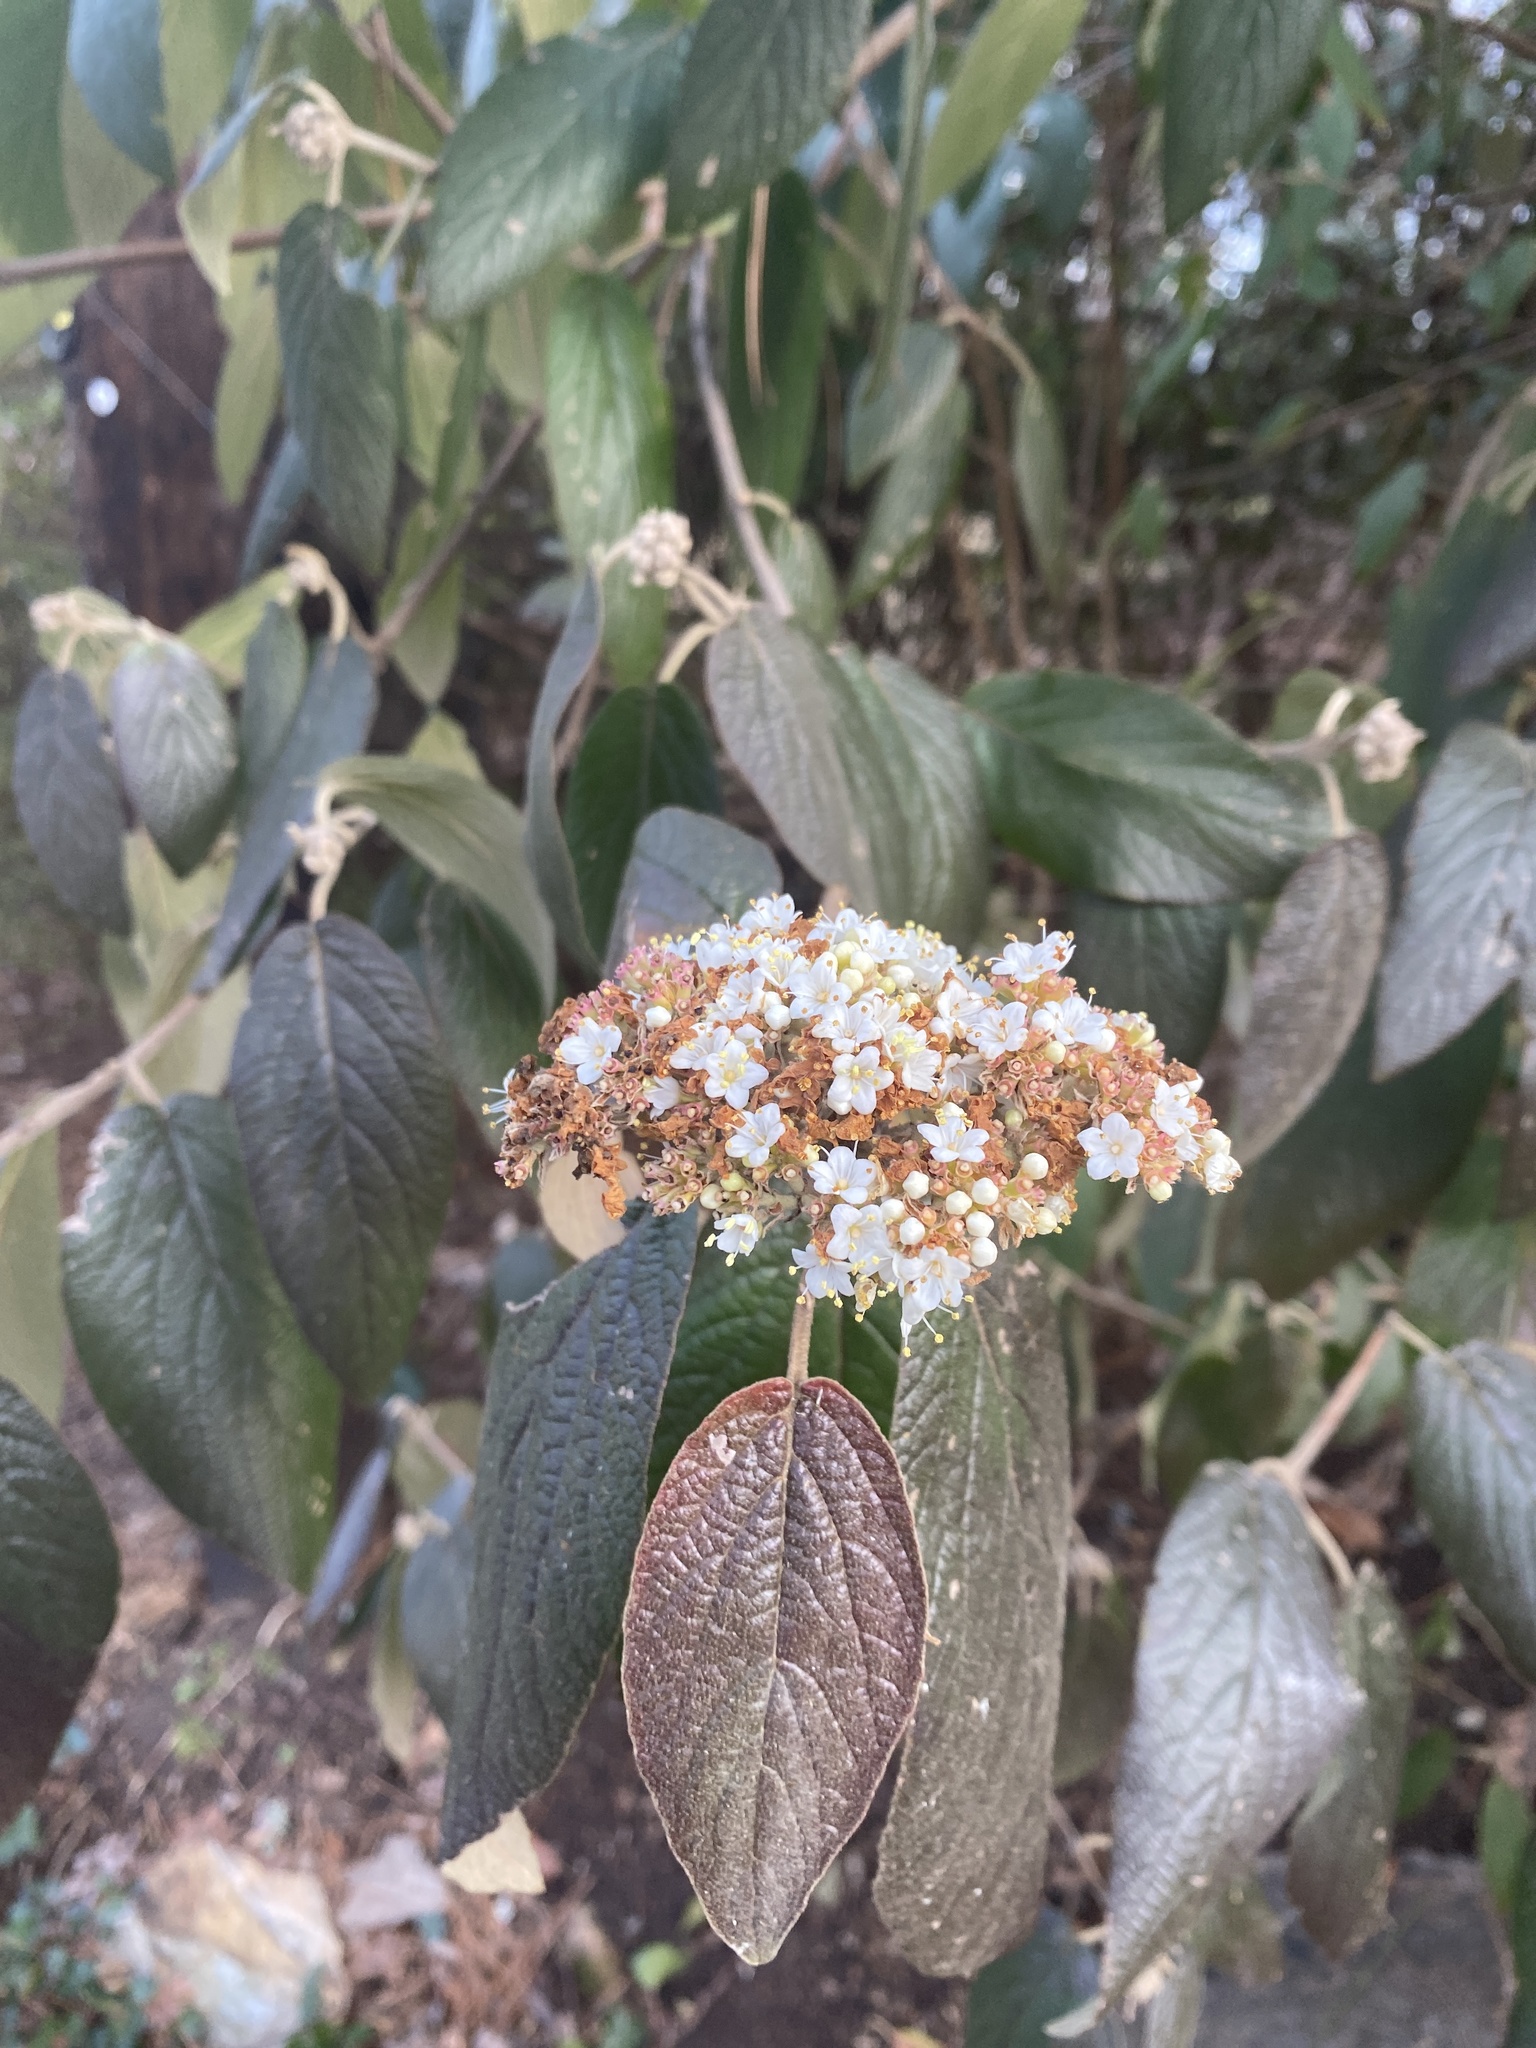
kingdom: Plantae
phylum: Tracheophyta
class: Magnoliopsida
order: Dipsacales
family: Viburnaceae
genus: Viburnum
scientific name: Viburnum rhytidophyllum
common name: Wrinkled viburnum
